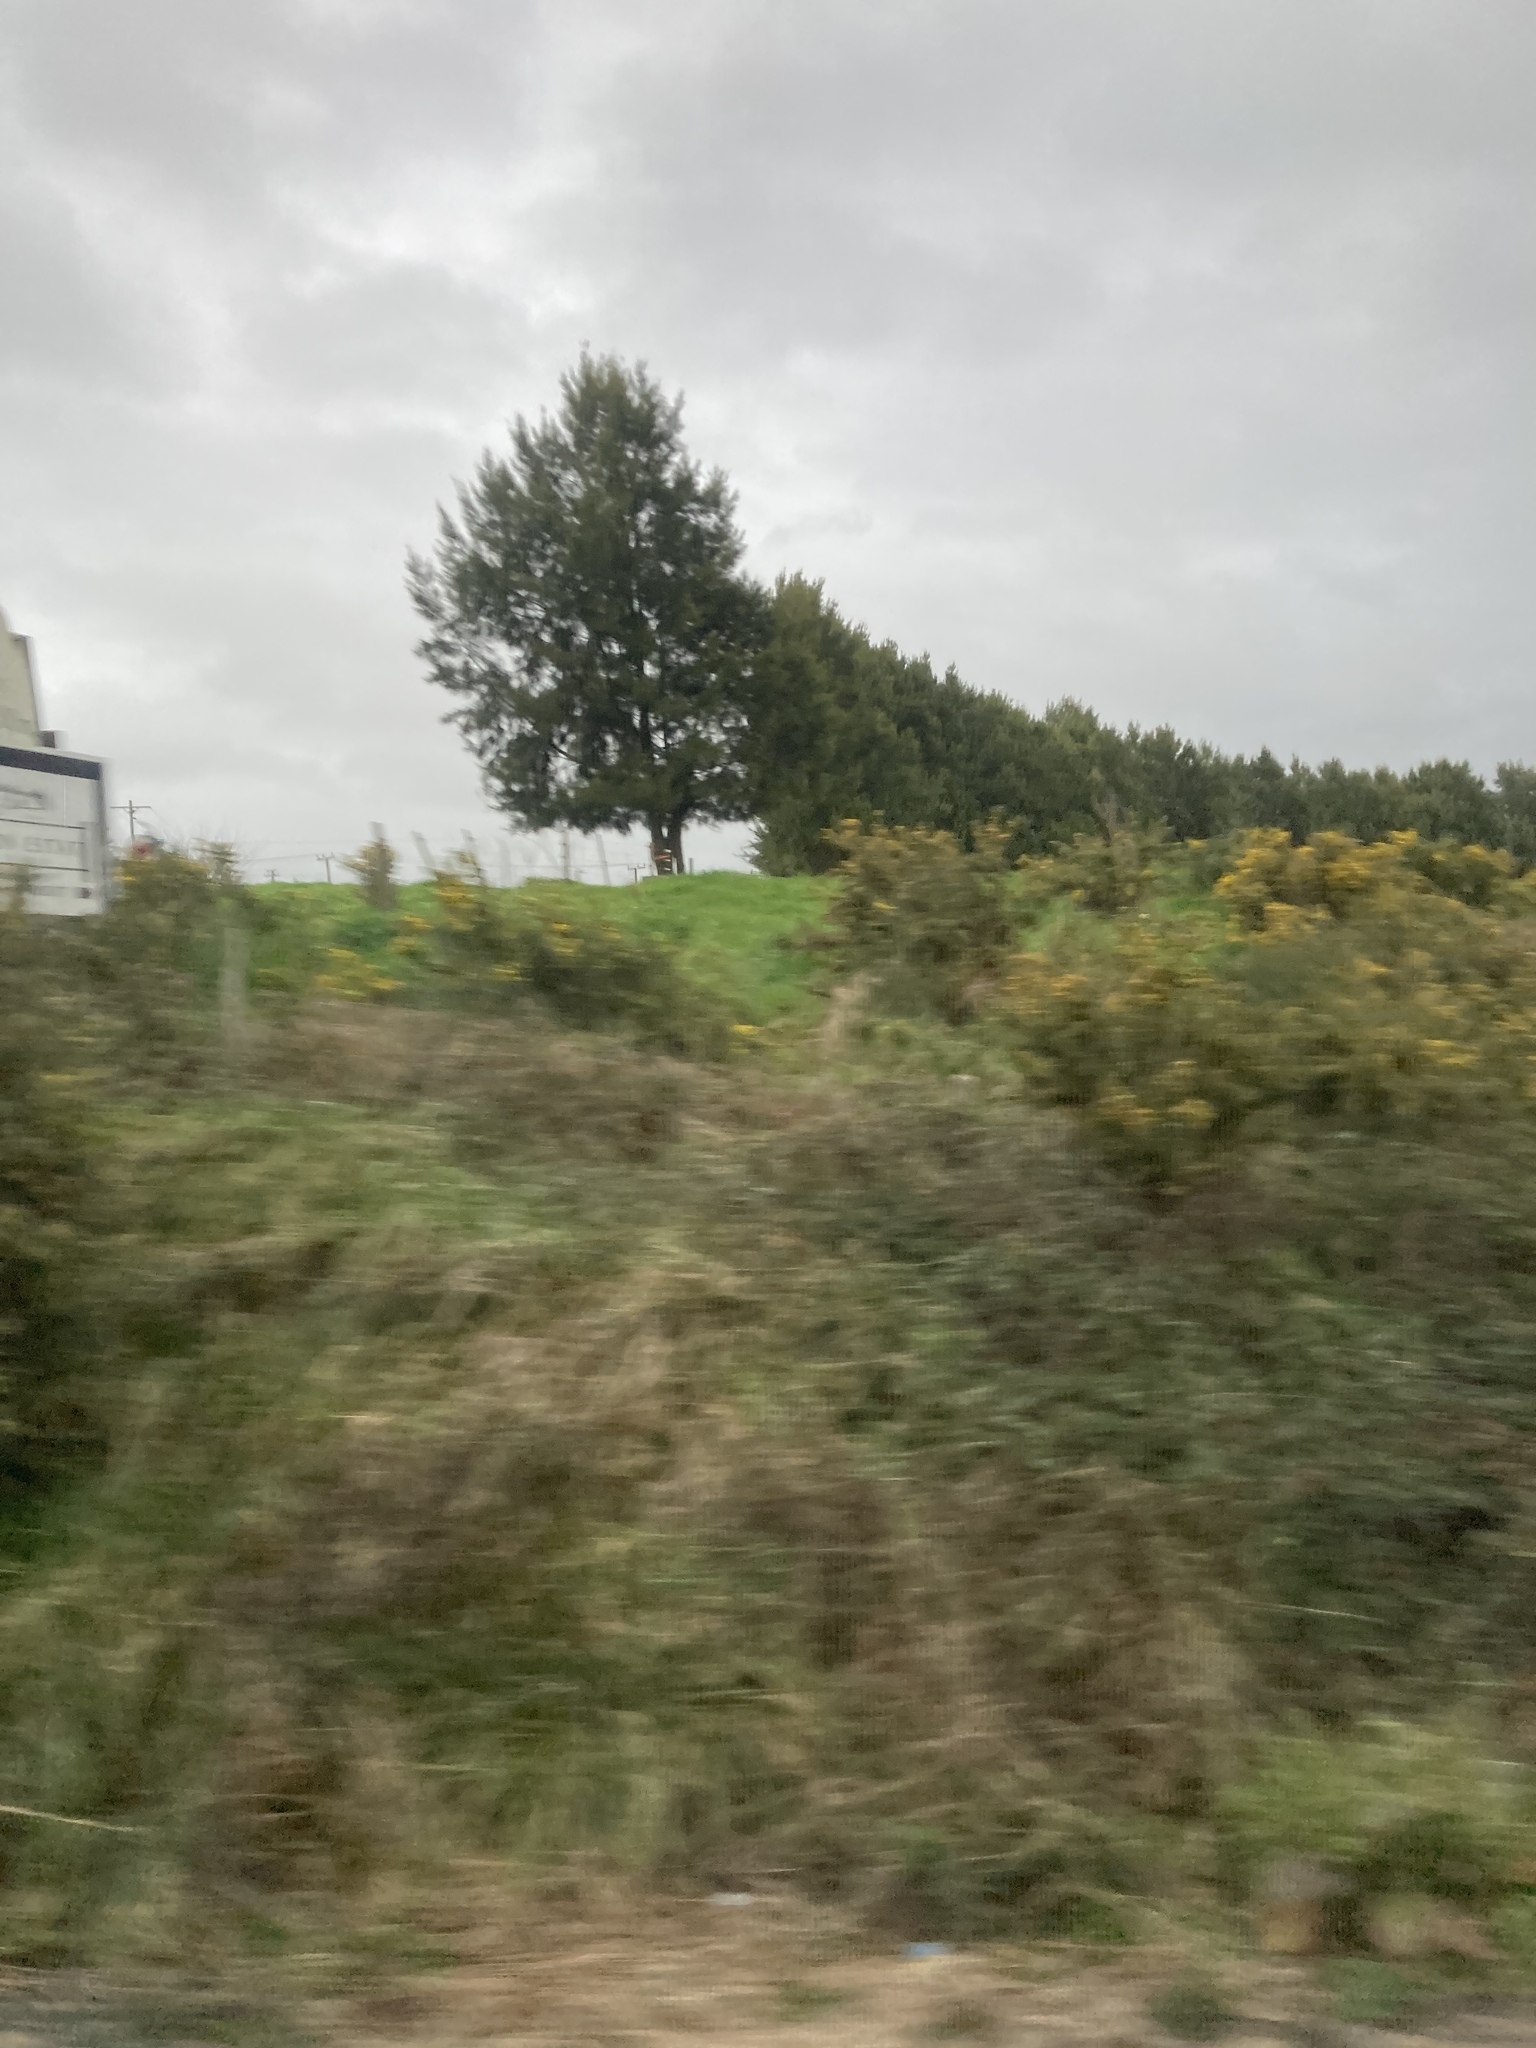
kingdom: Plantae
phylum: Tracheophyta
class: Magnoliopsida
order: Fabales
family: Fabaceae
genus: Ulex
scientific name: Ulex europaeus
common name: Common gorse
